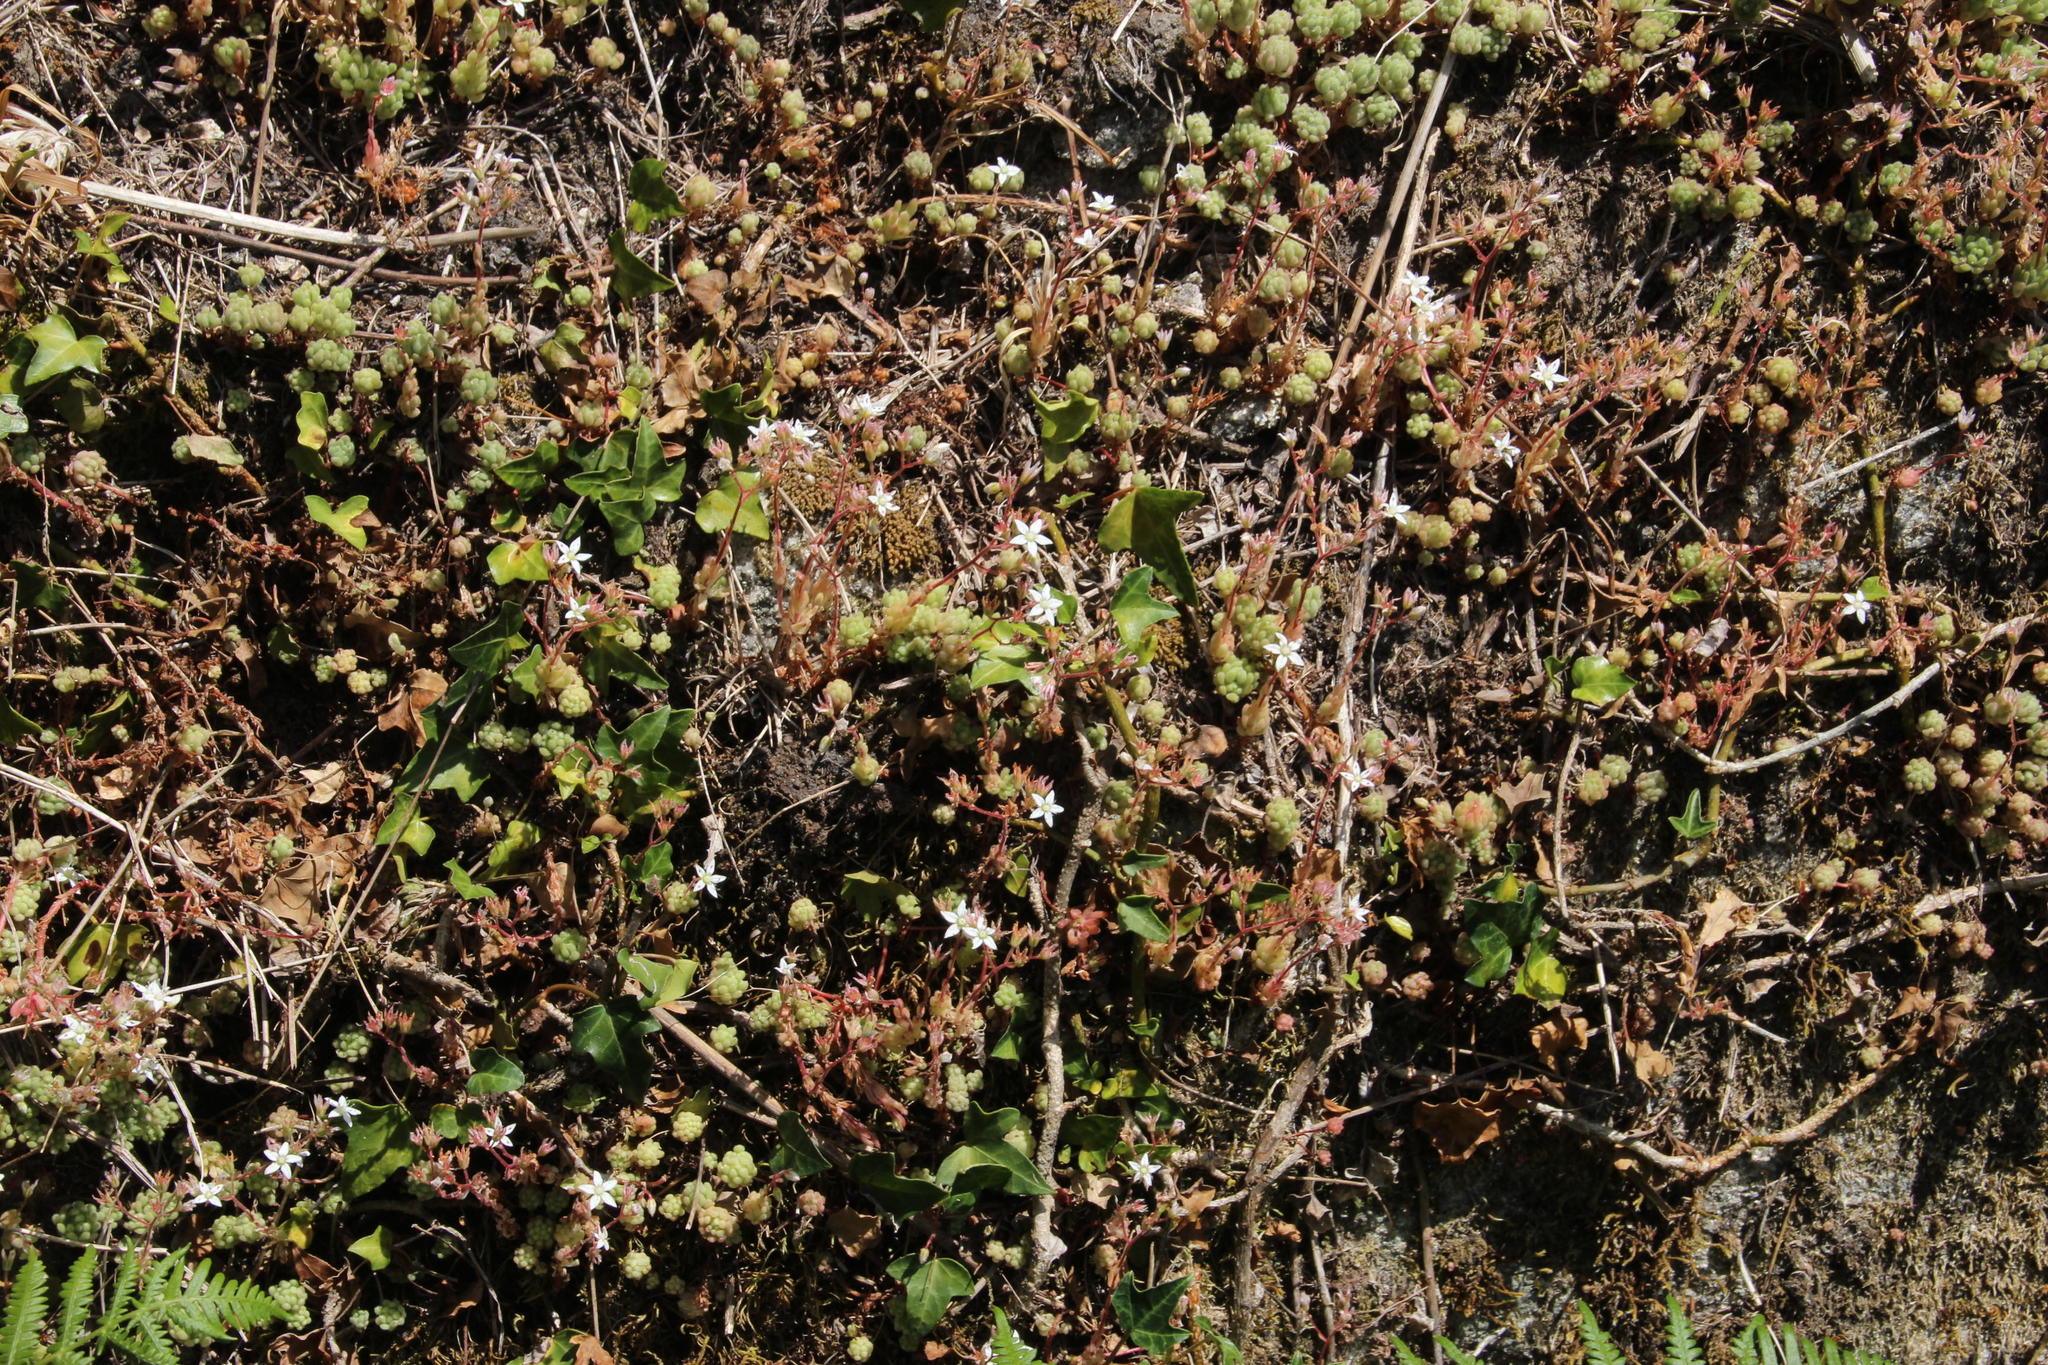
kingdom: Plantae
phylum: Tracheophyta
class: Magnoliopsida
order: Saxifragales
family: Crassulaceae
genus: Sedum
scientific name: Sedum hirsutum
